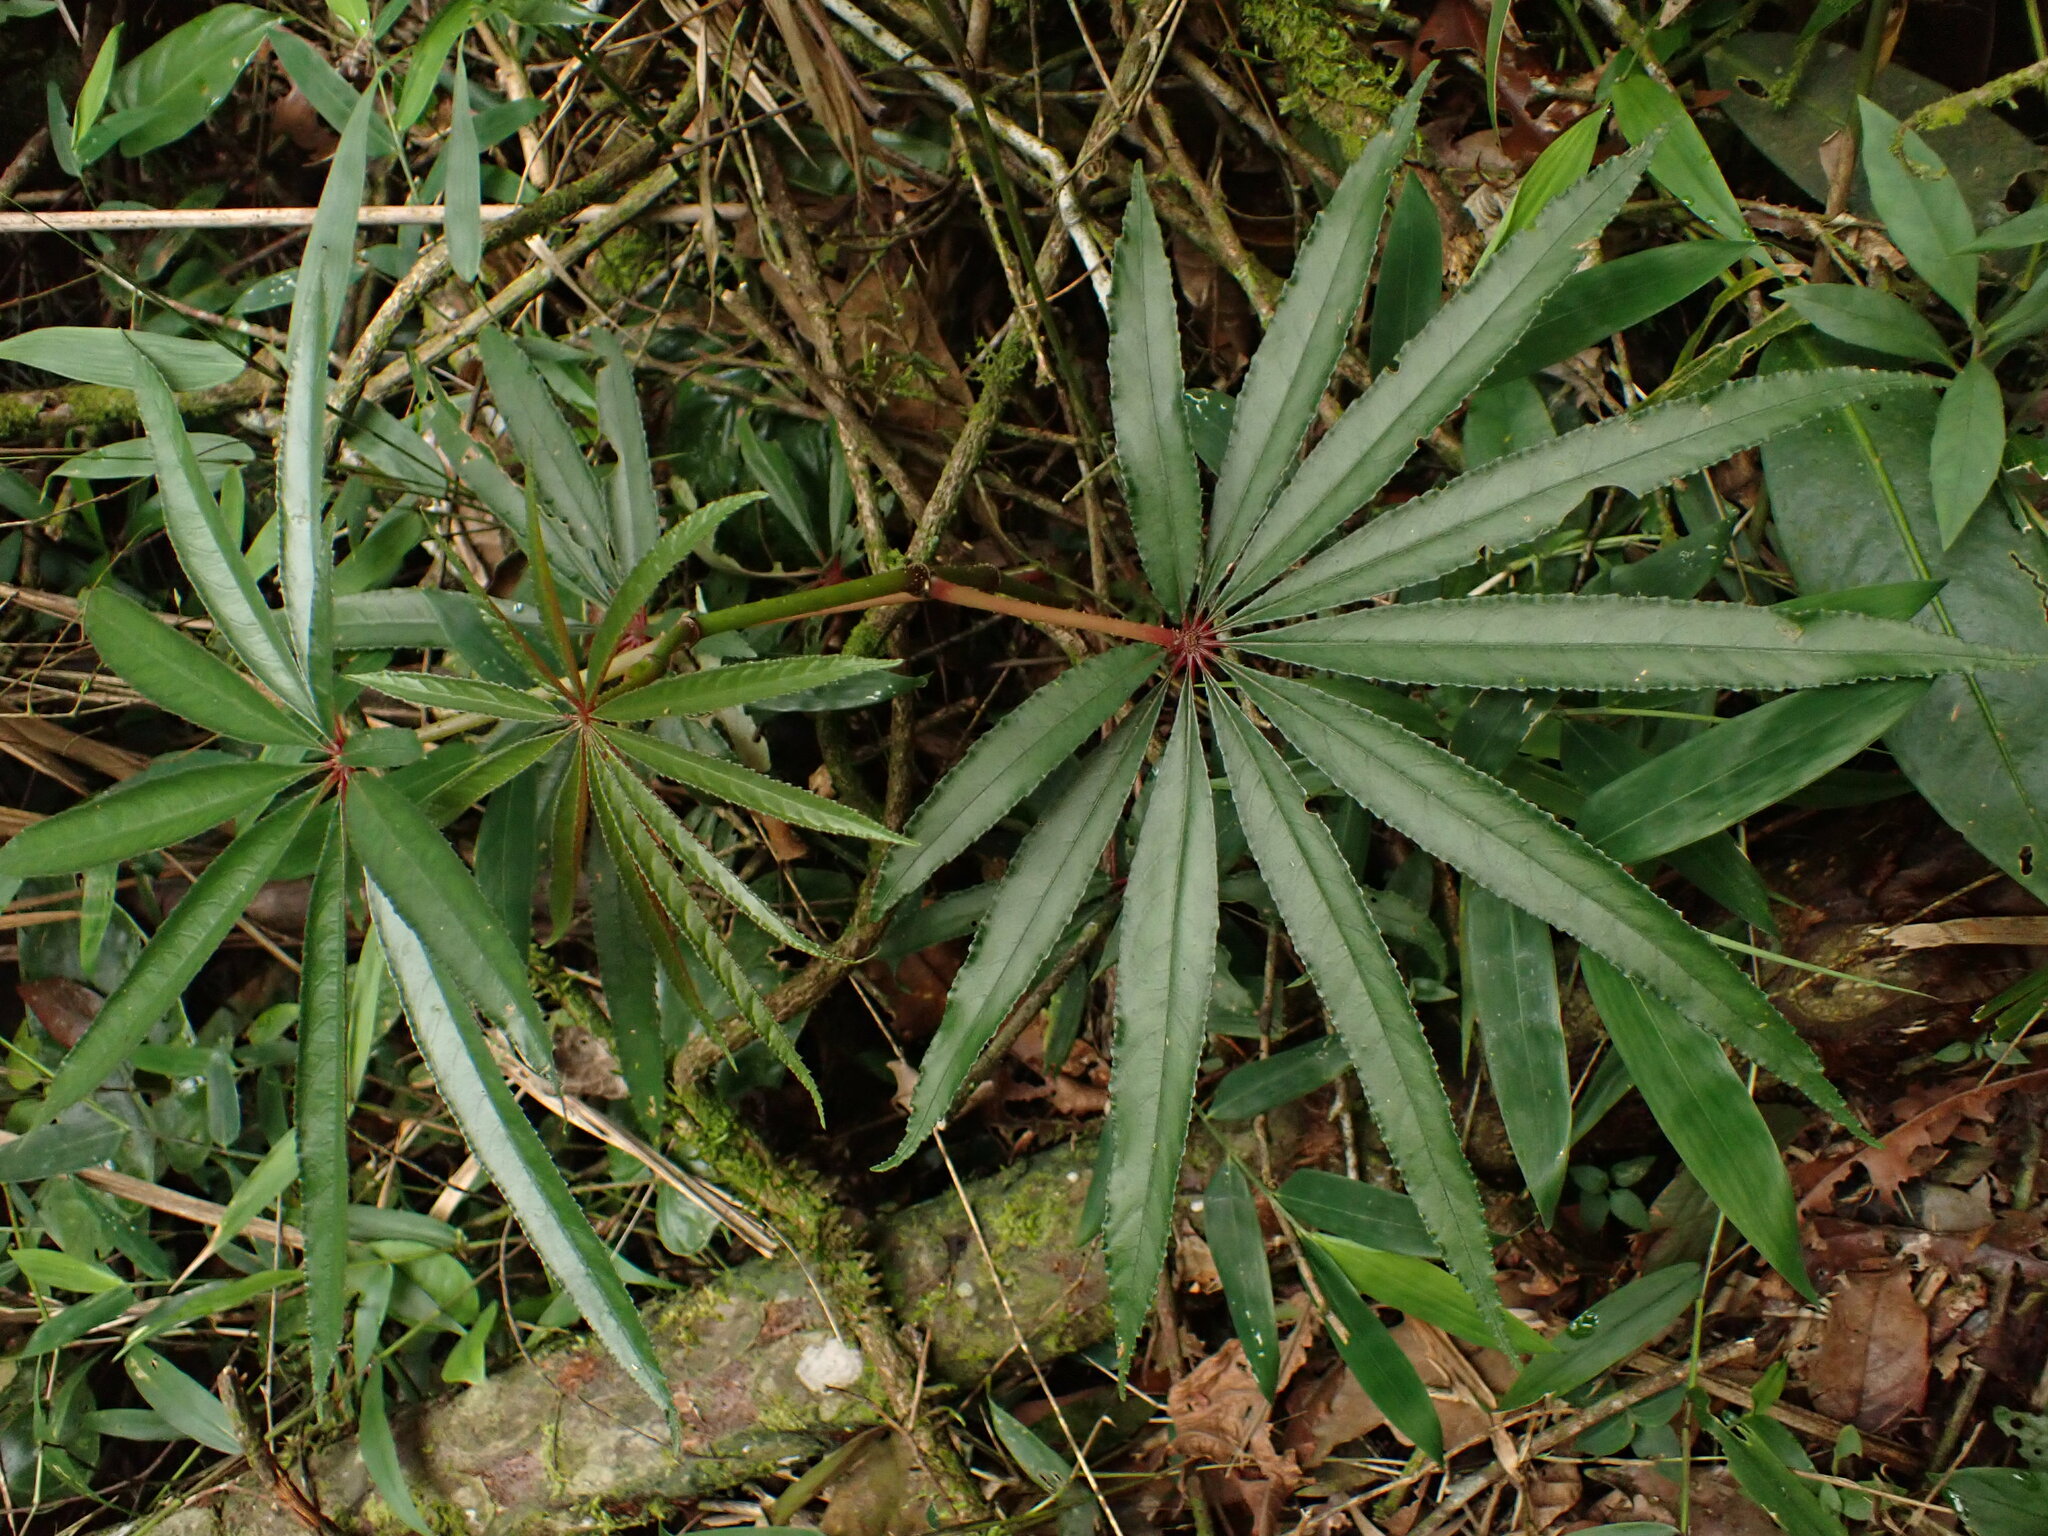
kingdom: Plantae
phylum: Tracheophyta
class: Magnoliopsida
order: Cucurbitales
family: Begoniaceae
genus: Begonia
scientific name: Begonia luxurians
